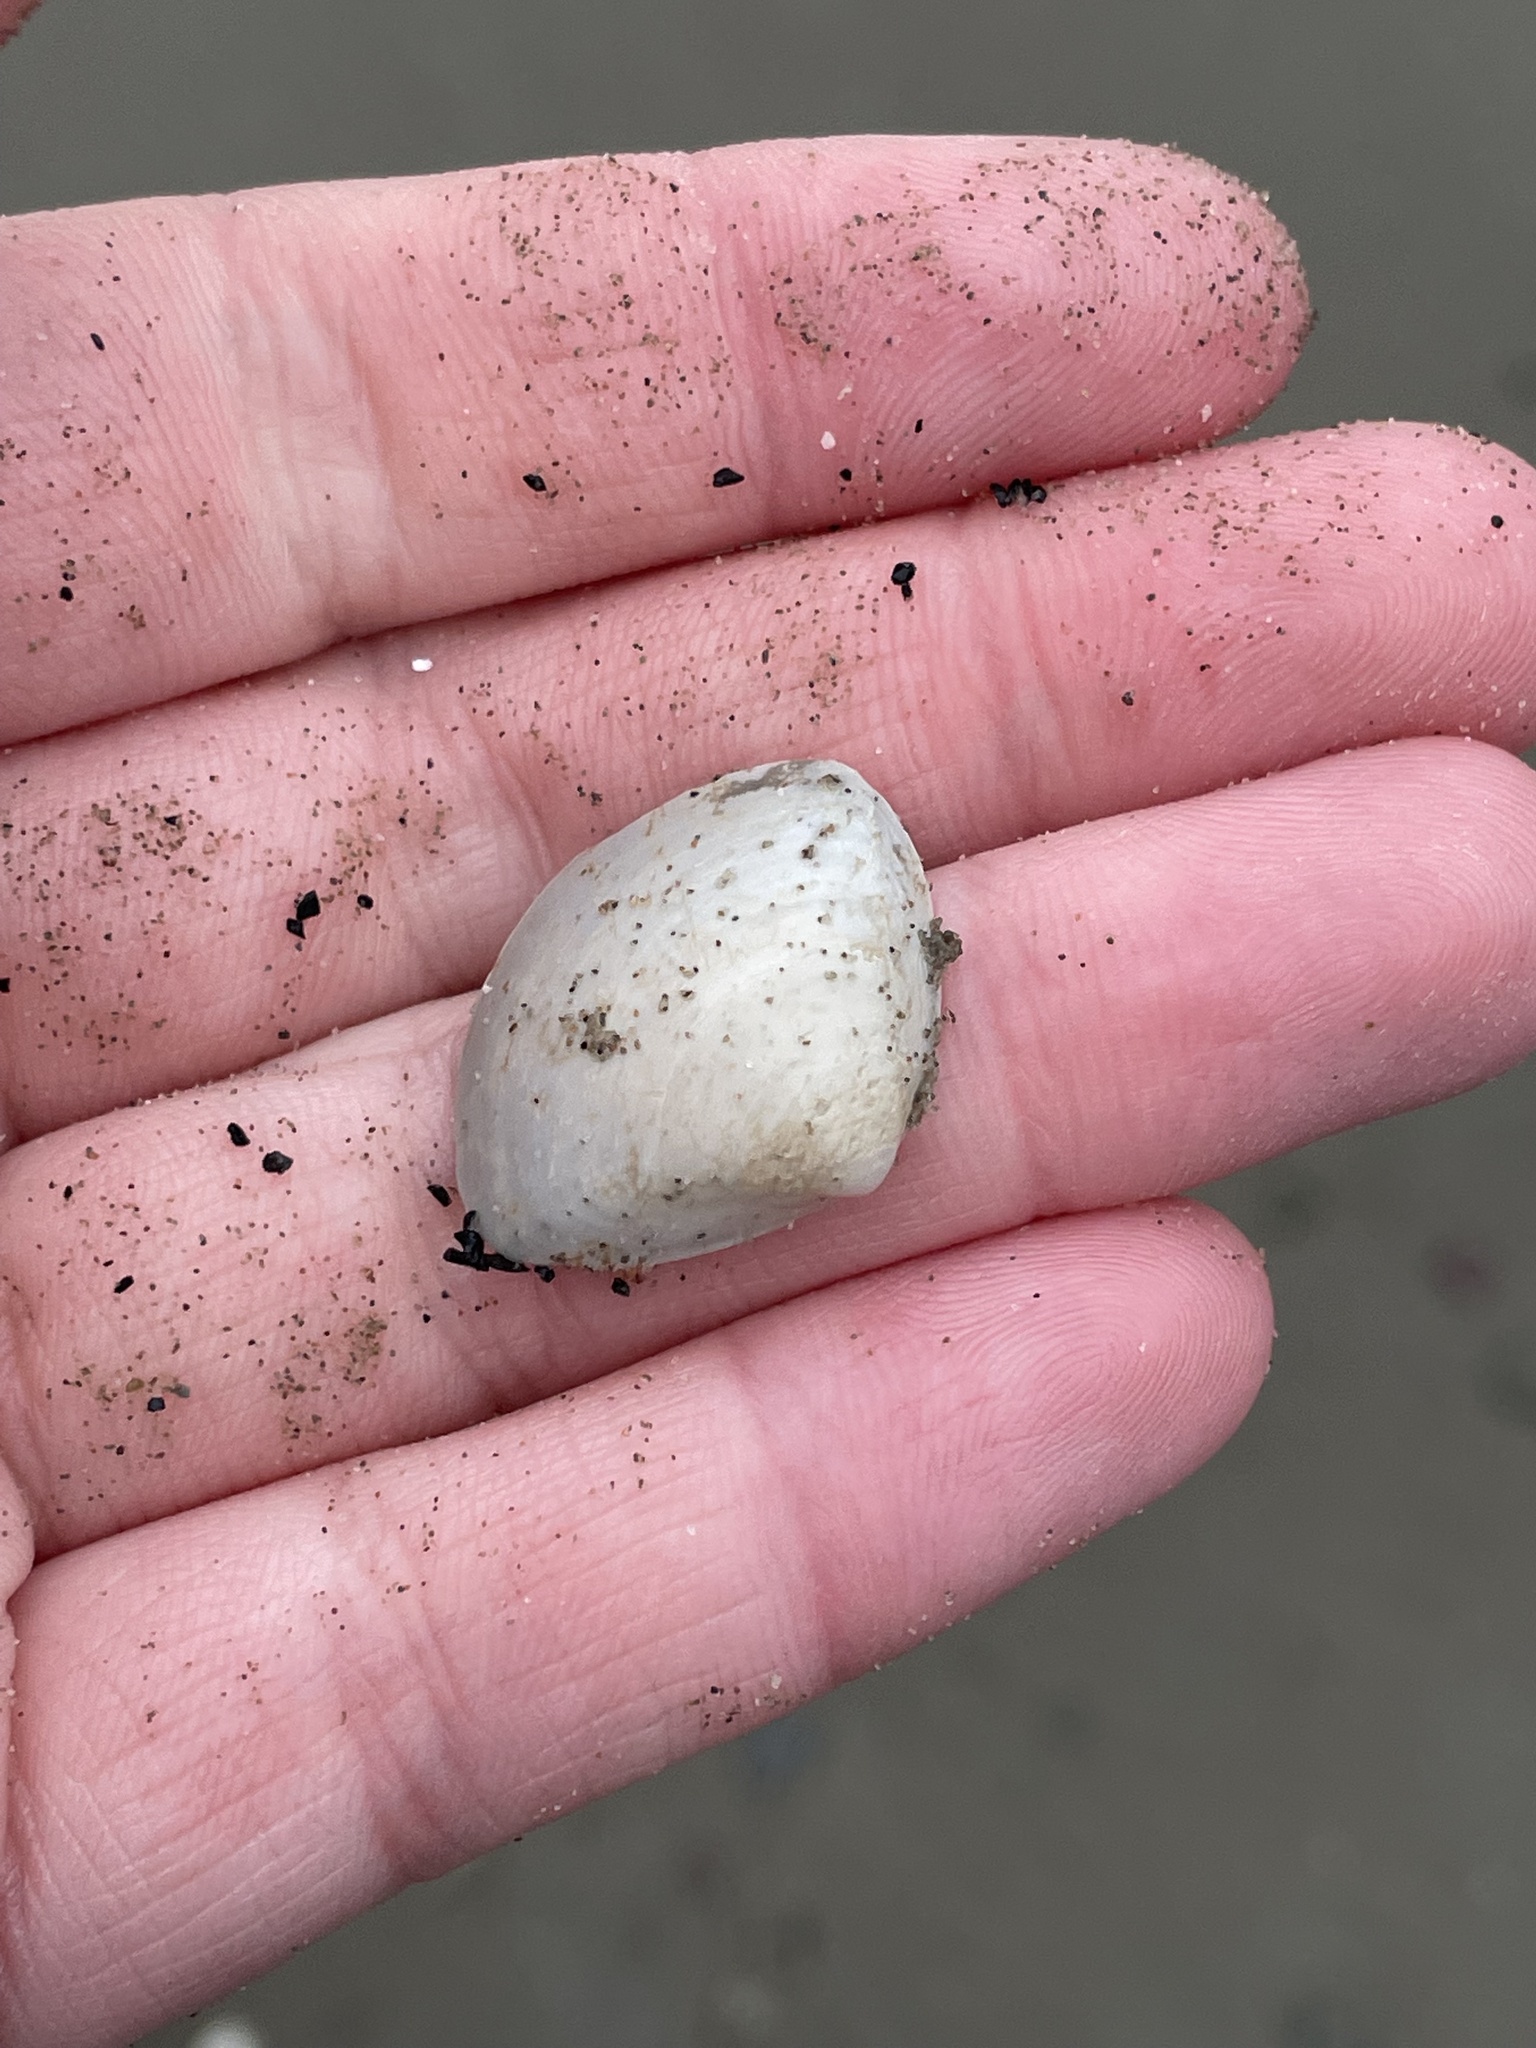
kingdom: Animalia
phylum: Mollusca
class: Bivalvia
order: Venerida
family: Mactridae
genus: Spisula
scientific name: Spisula solidissima
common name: Atlantic surf clam
